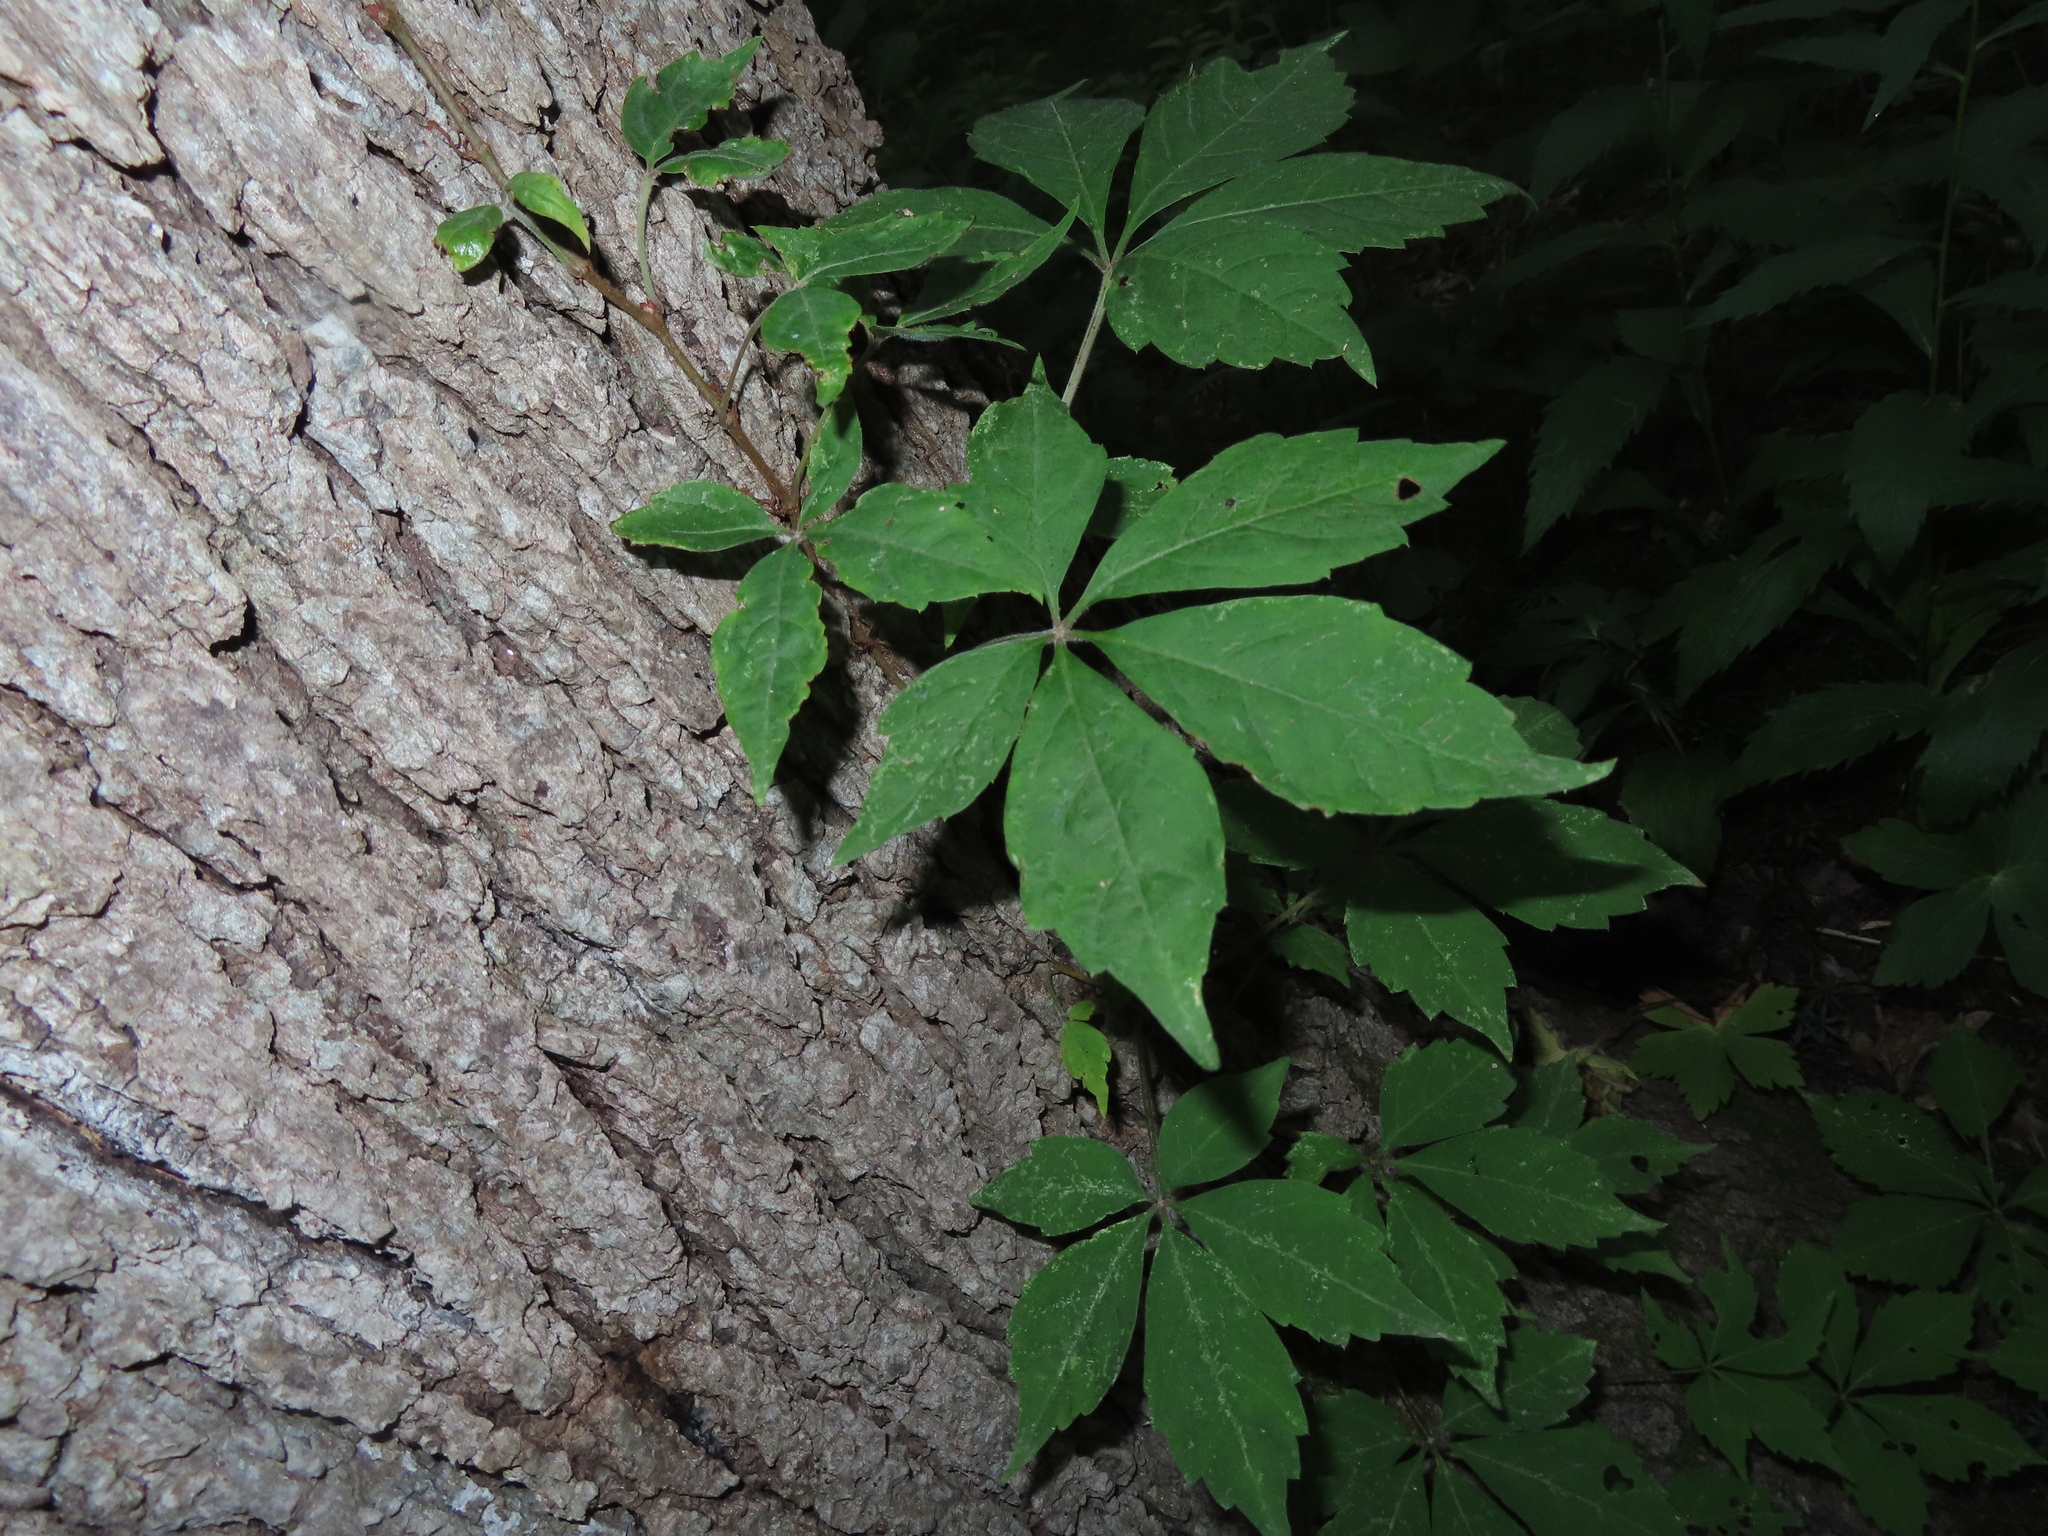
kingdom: Plantae
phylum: Tracheophyta
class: Magnoliopsida
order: Vitales
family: Vitaceae
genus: Parthenocissus
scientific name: Parthenocissus quinquefolia
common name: Virginia-creeper
